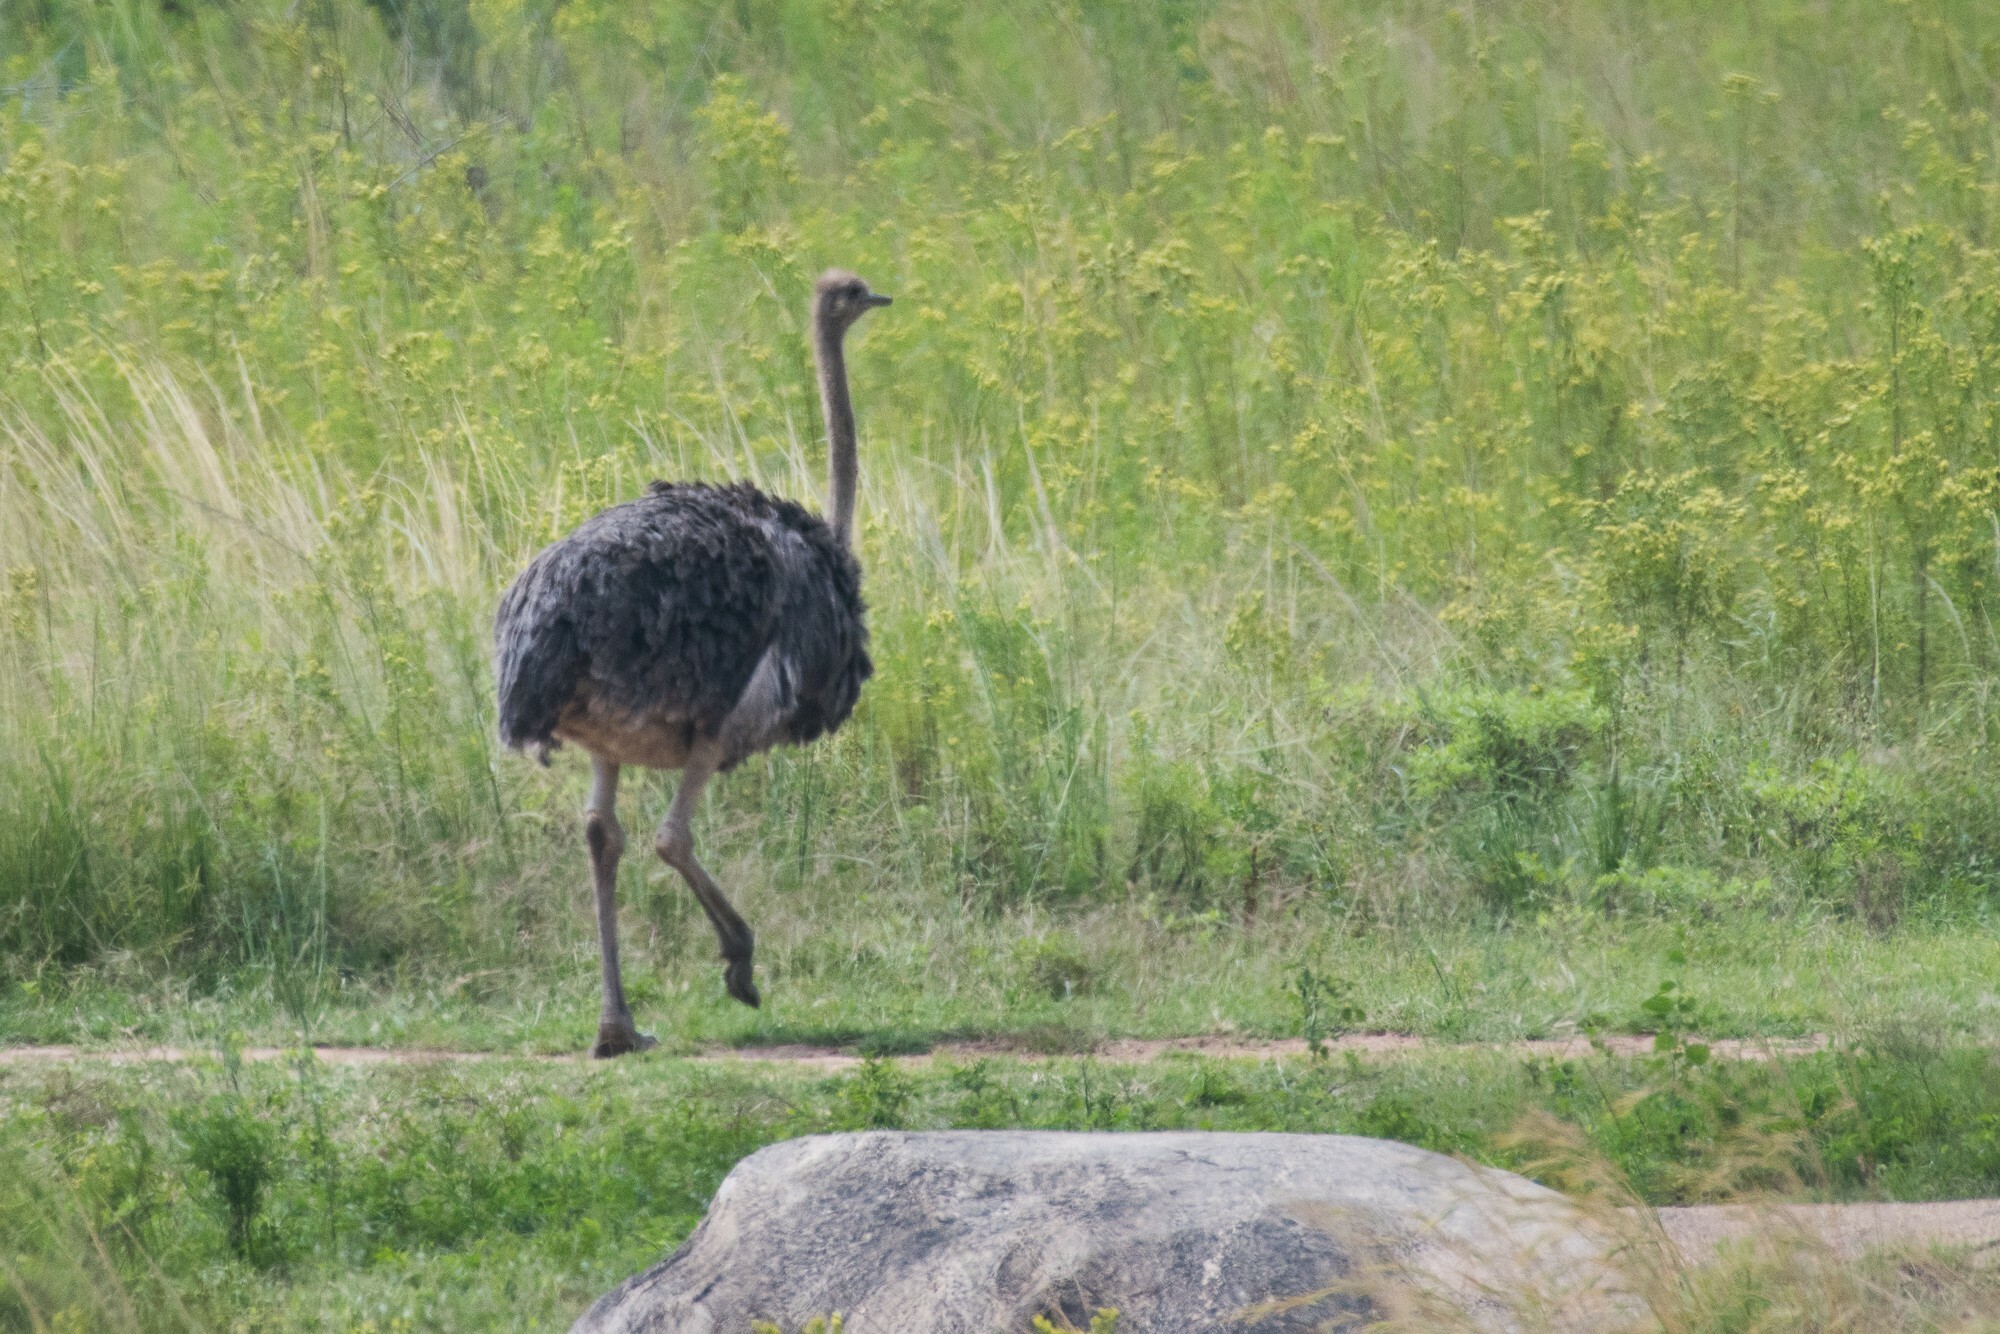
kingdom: Animalia
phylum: Chordata
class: Aves
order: Struthioniformes
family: Struthionidae
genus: Struthio
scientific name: Struthio camelus
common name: Common ostrich
